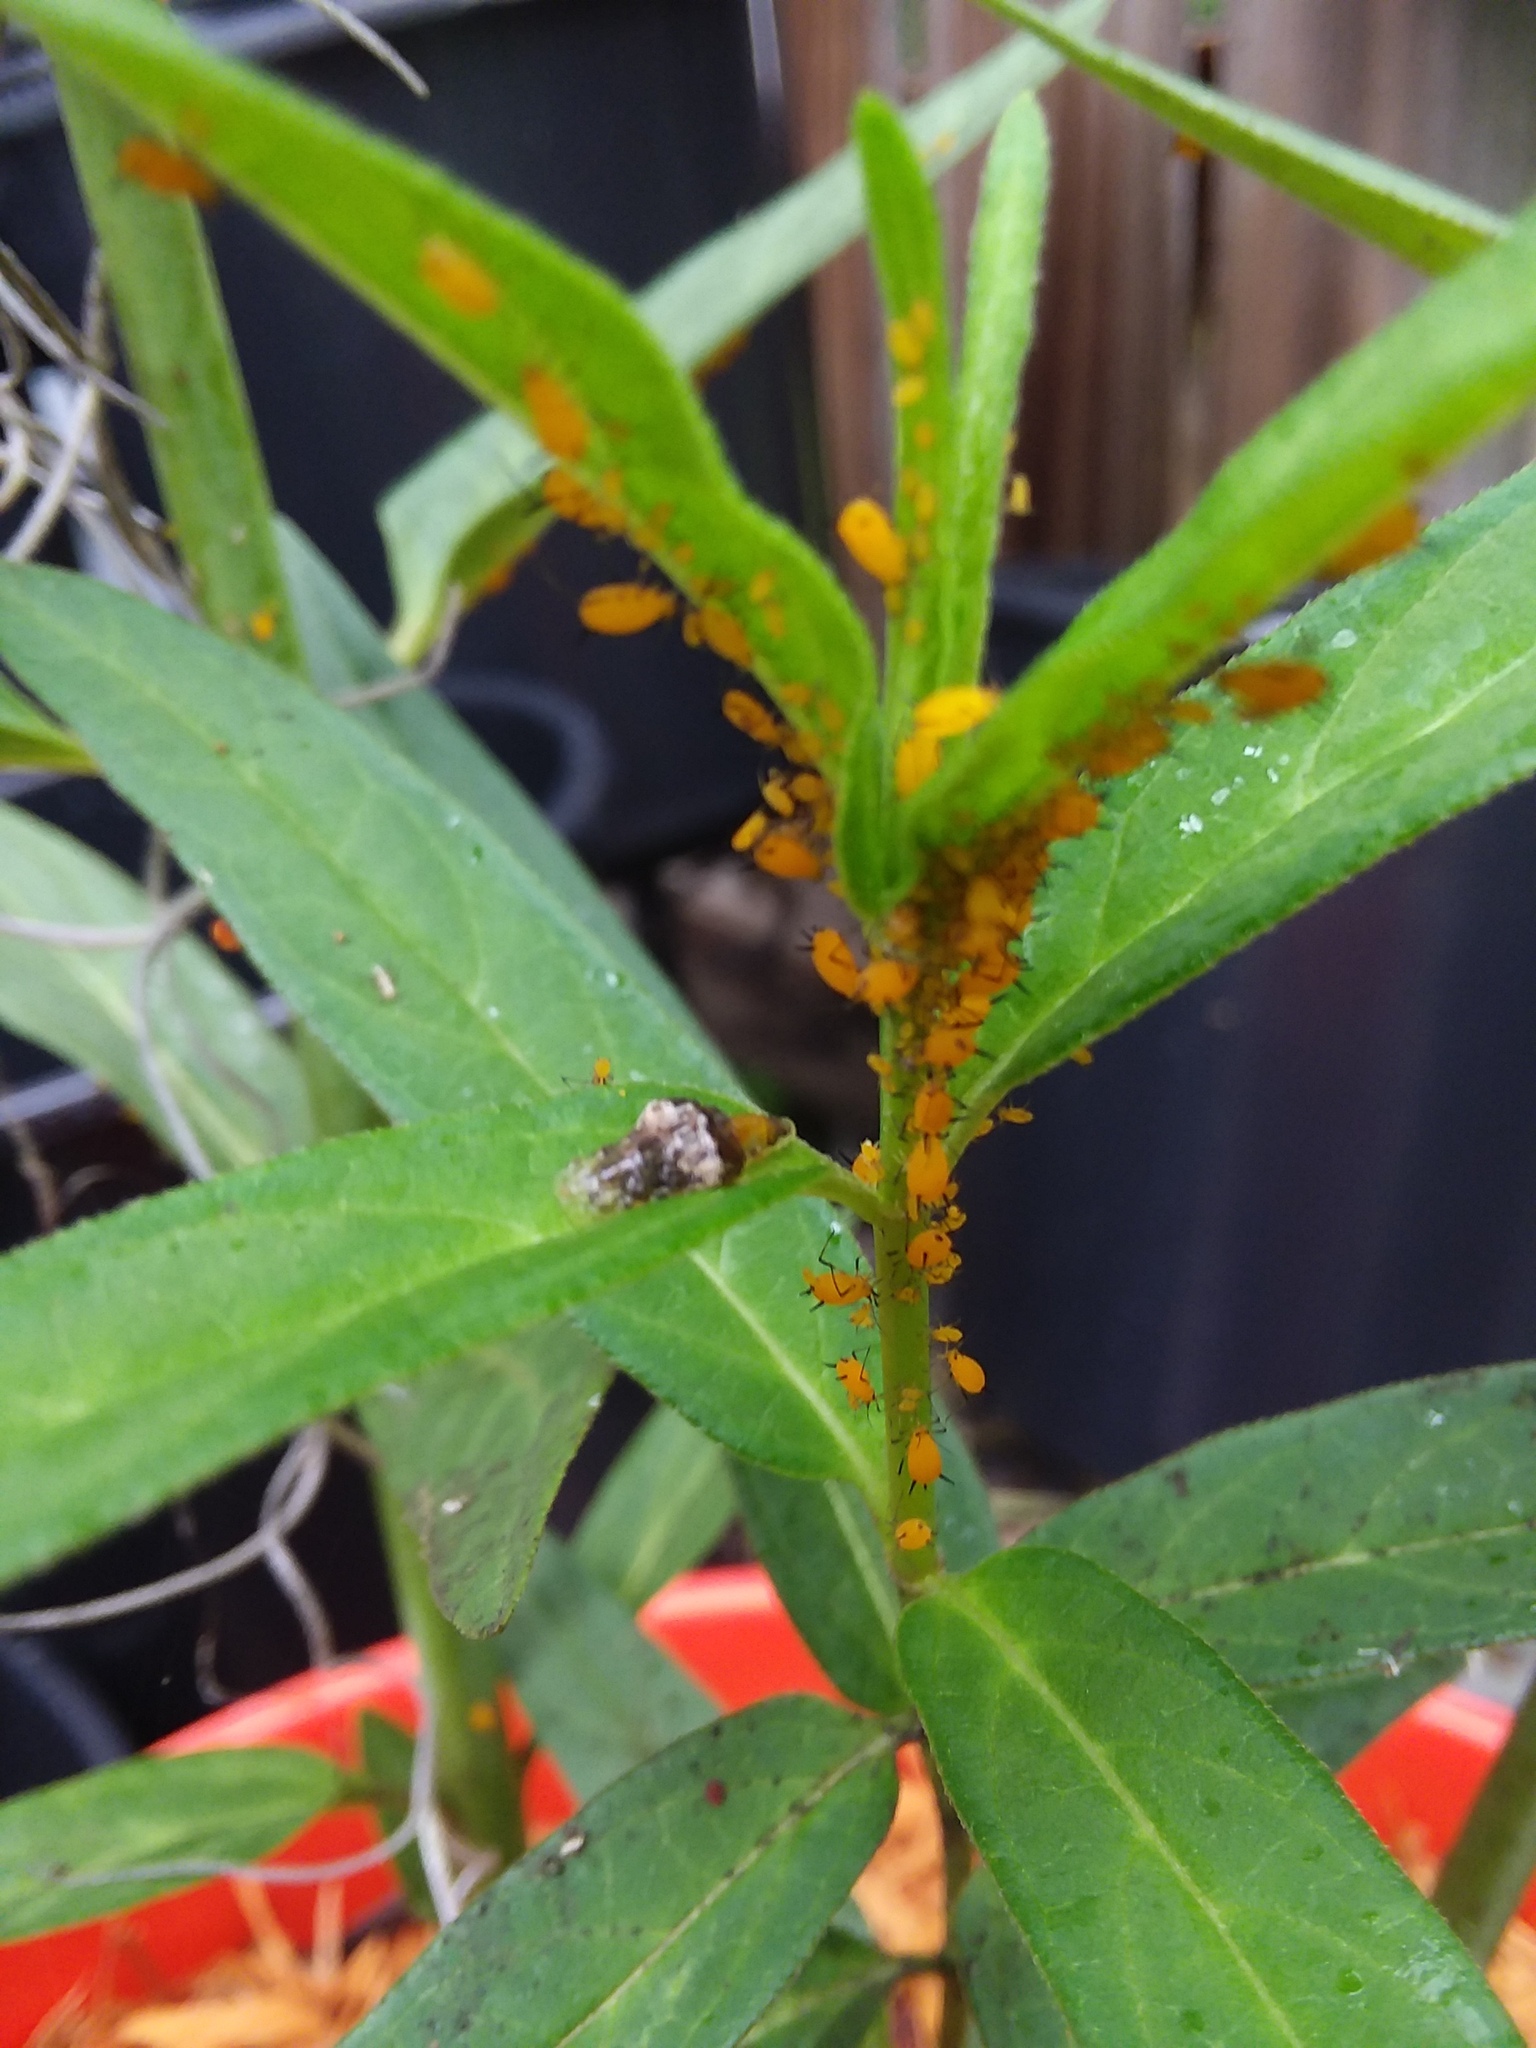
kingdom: Animalia
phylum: Arthropoda
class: Insecta
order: Hemiptera
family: Aphididae
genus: Aphis
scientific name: Aphis nerii
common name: Oleander aphid
